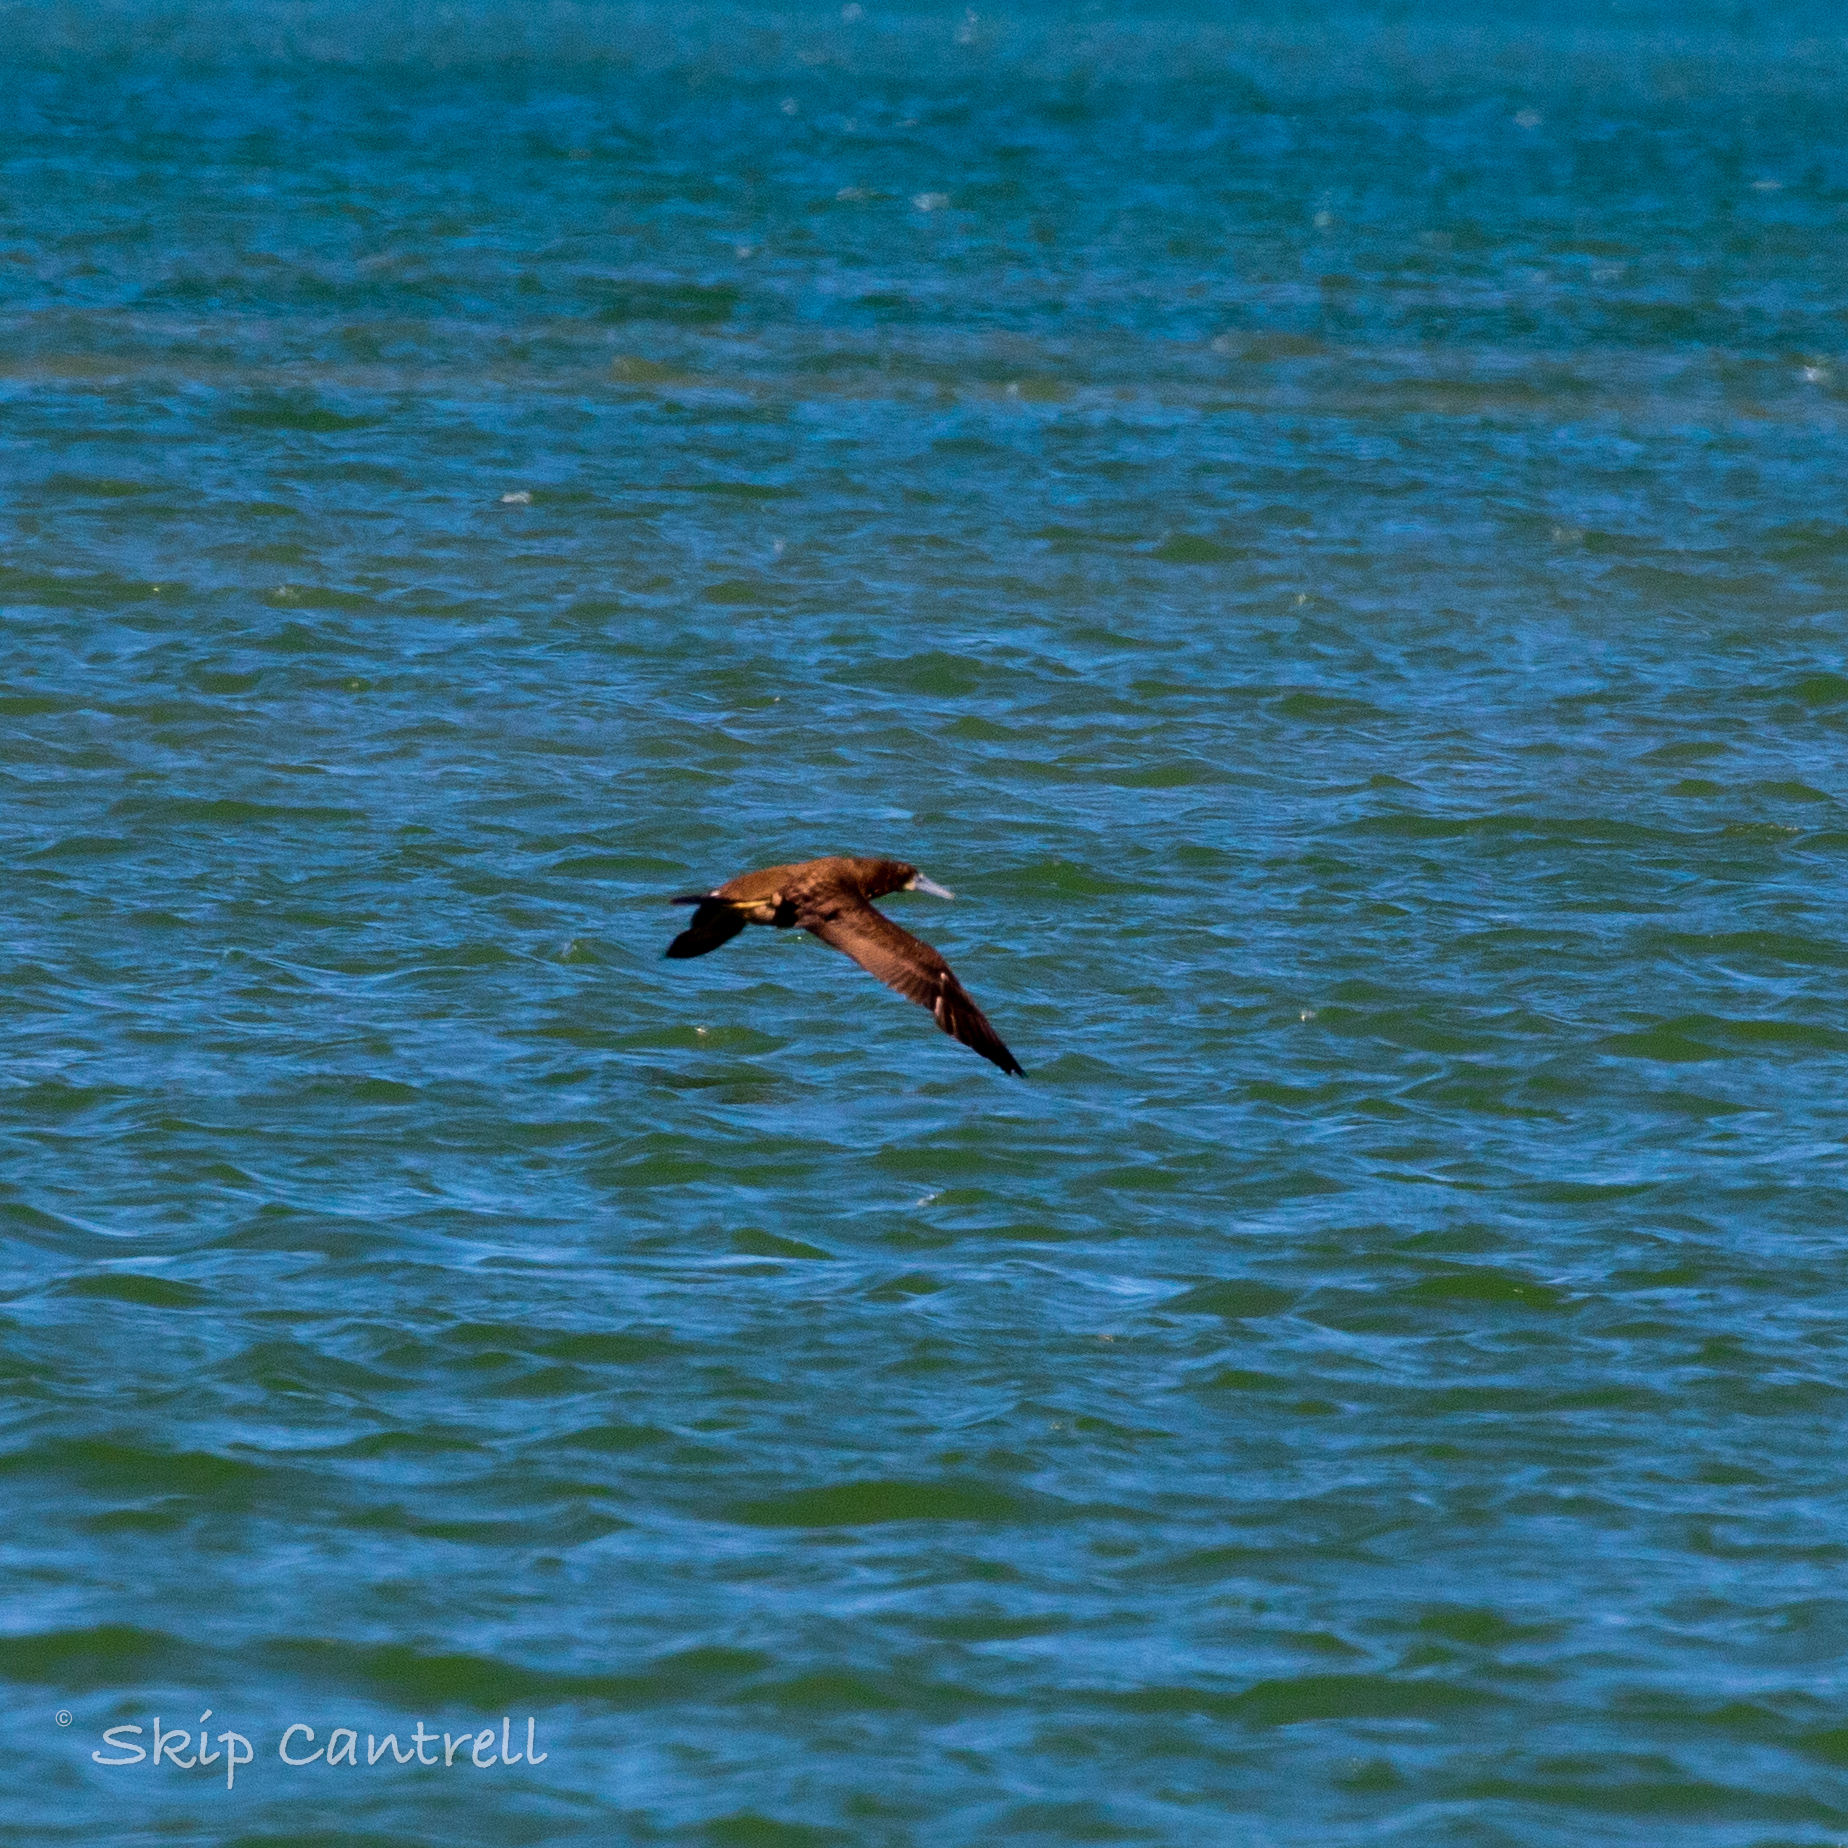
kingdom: Animalia
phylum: Chordata
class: Aves
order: Suliformes
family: Sulidae
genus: Sula
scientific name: Sula leucogaster
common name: Brown booby
